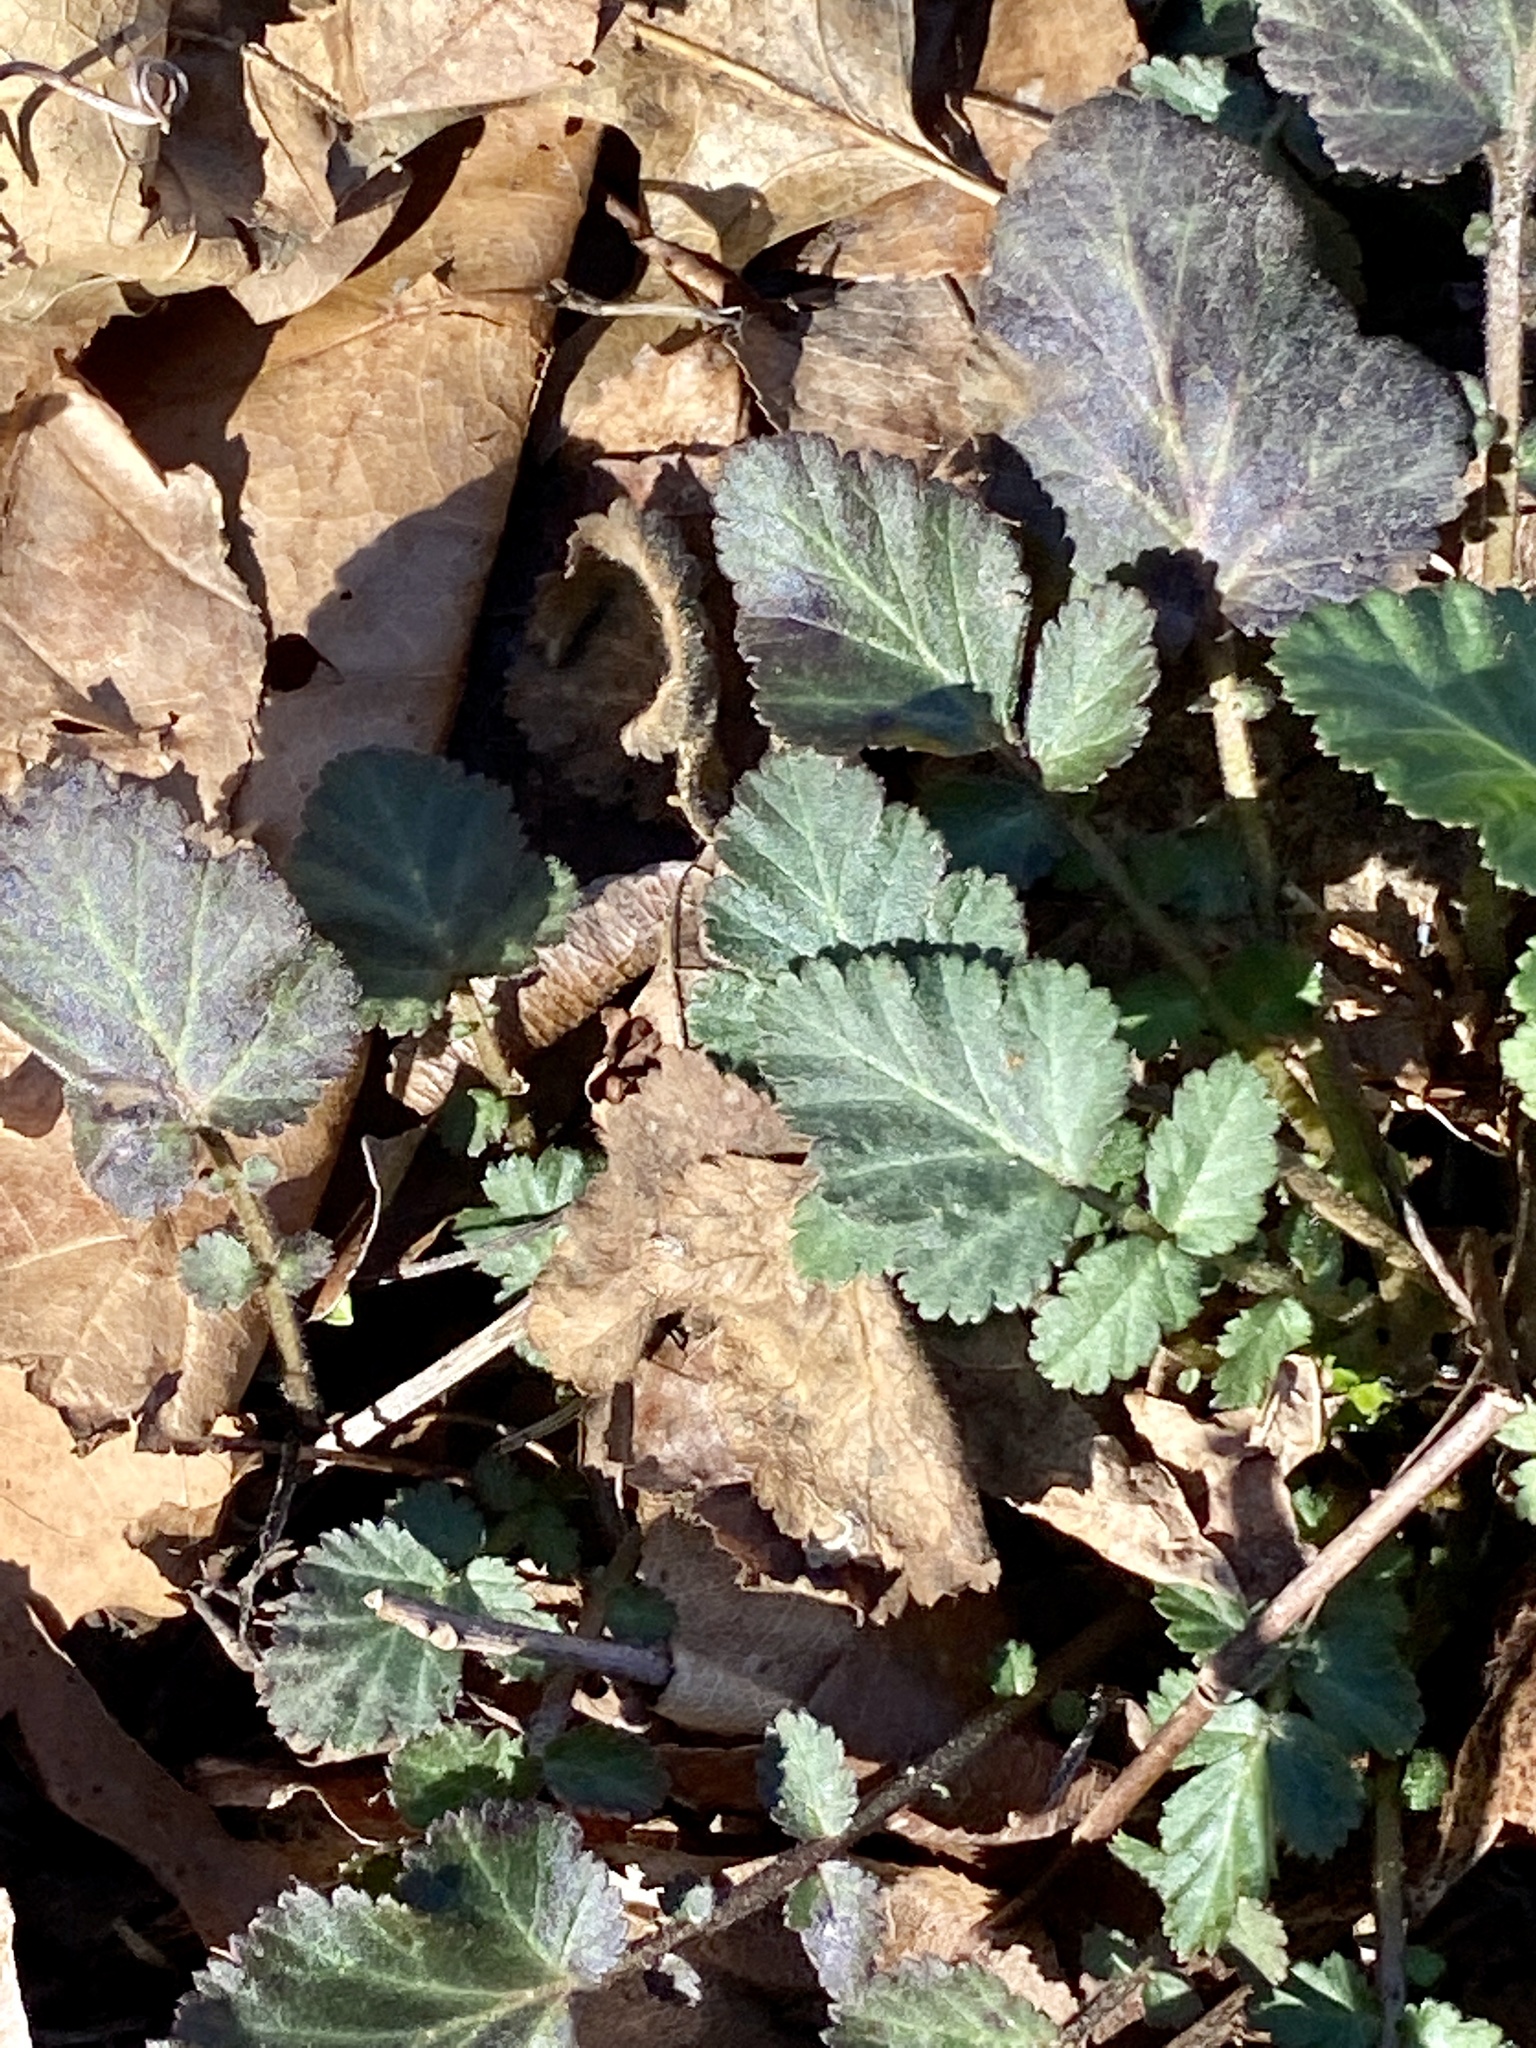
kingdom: Plantae
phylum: Tracheophyta
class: Magnoliopsida
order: Rosales
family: Rosaceae
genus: Geum
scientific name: Geum canadense
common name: White avens
